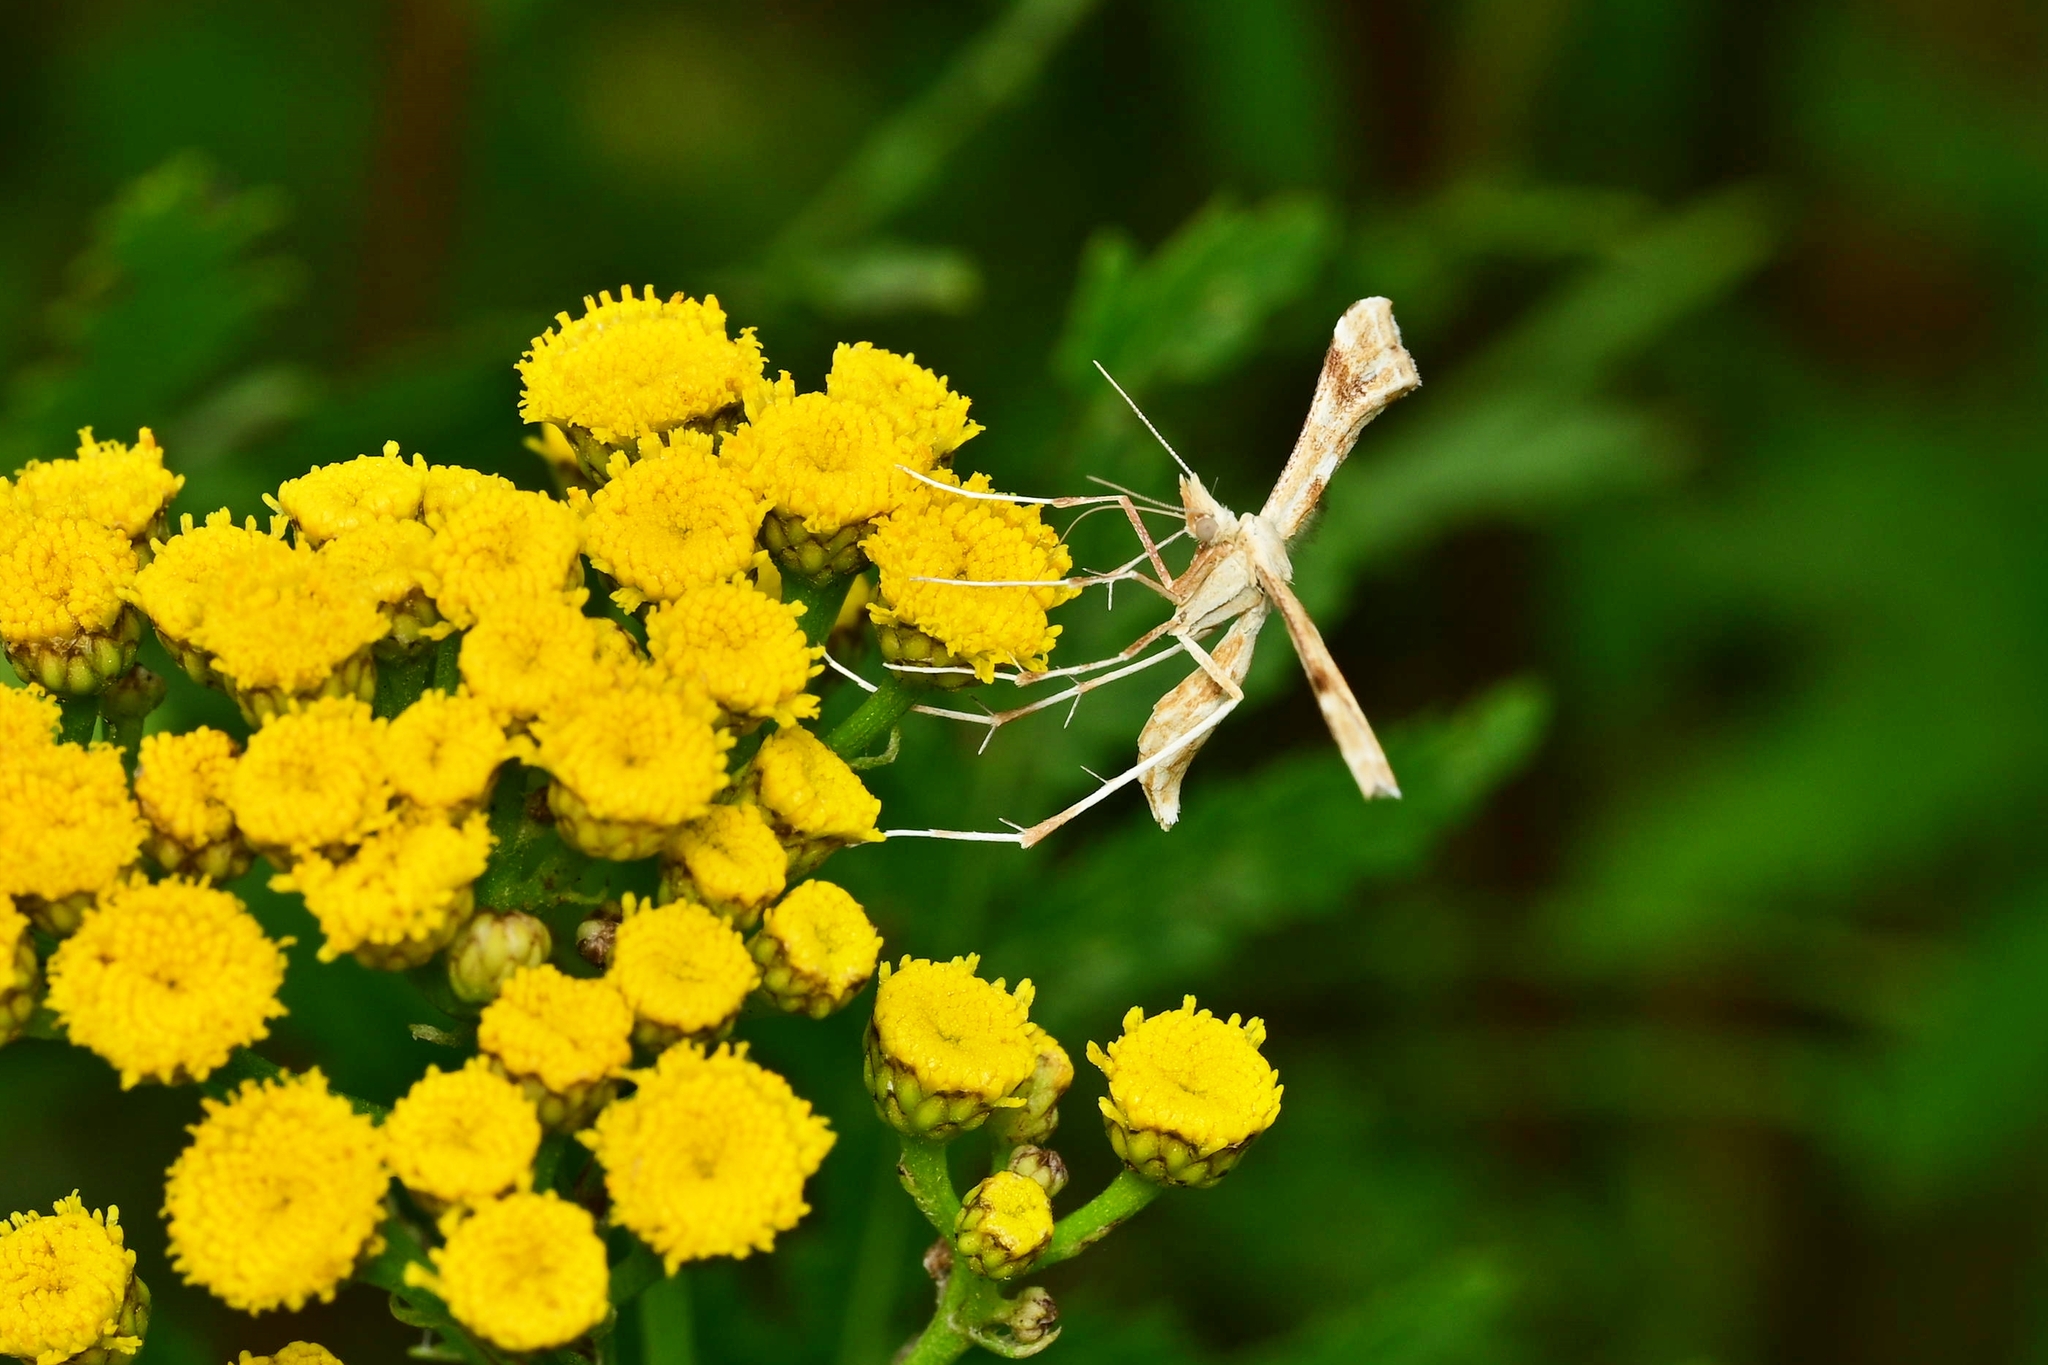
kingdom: Animalia
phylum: Arthropoda
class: Insecta
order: Lepidoptera
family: Pterophoridae
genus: Gillmeria
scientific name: Gillmeria ochrodactyla
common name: Tansy plume
